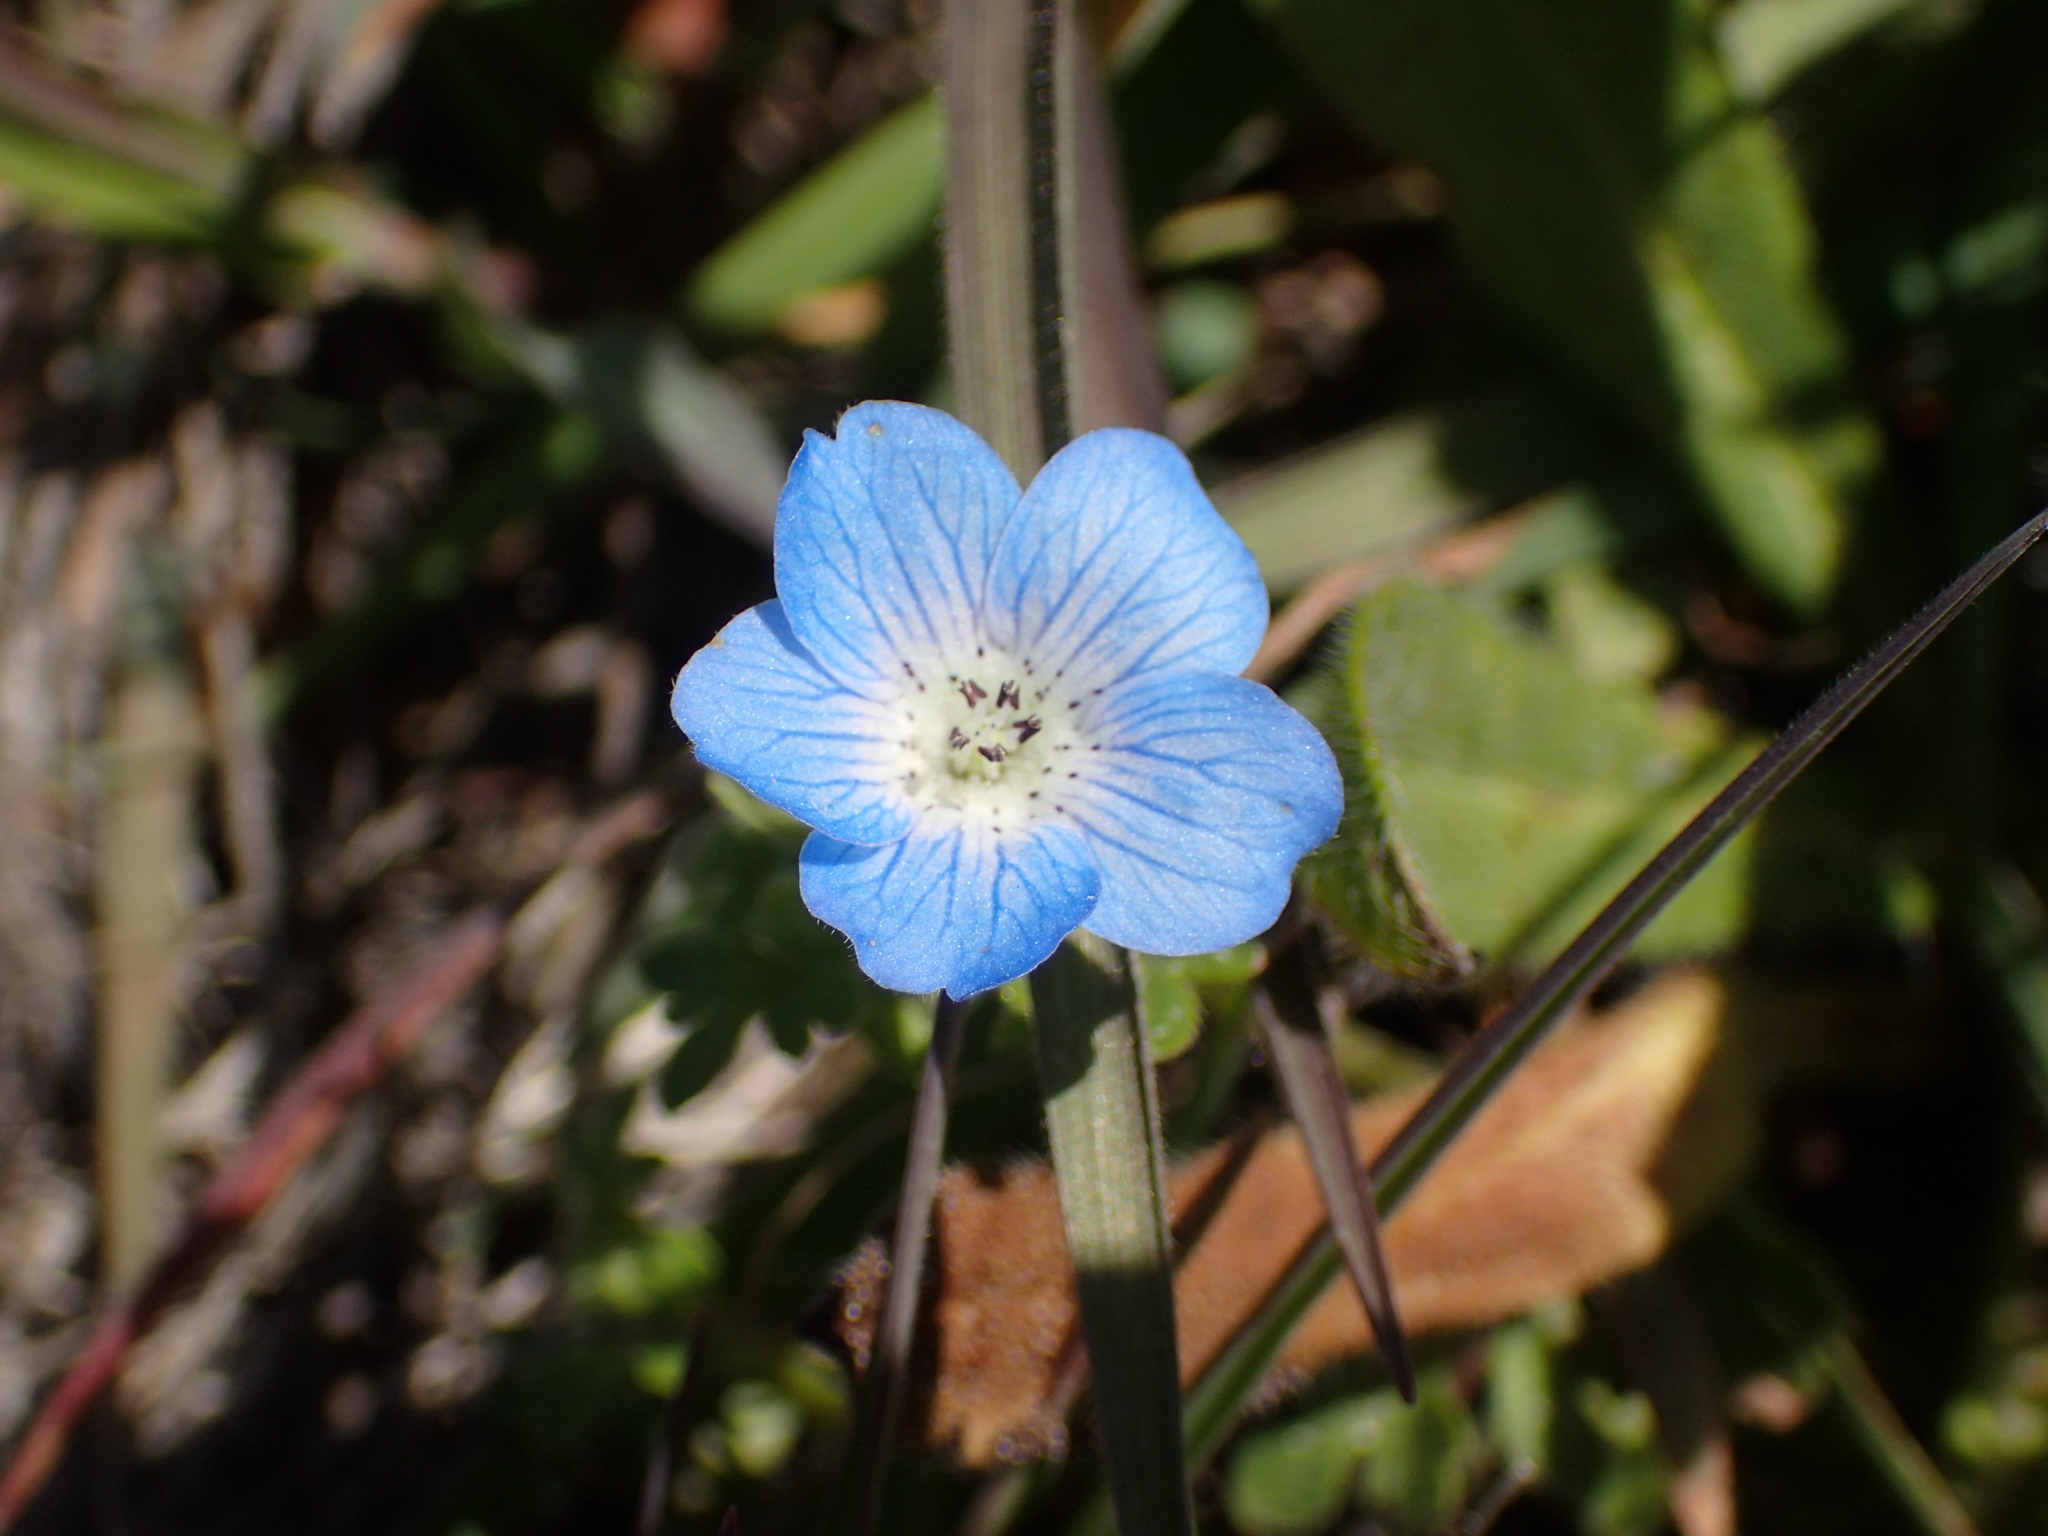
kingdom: Plantae
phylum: Tracheophyta
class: Magnoliopsida
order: Boraginales
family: Hydrophyllaceae
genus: Nemophila
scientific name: Nemophila menziesii
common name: Baby's-blue-eyes
